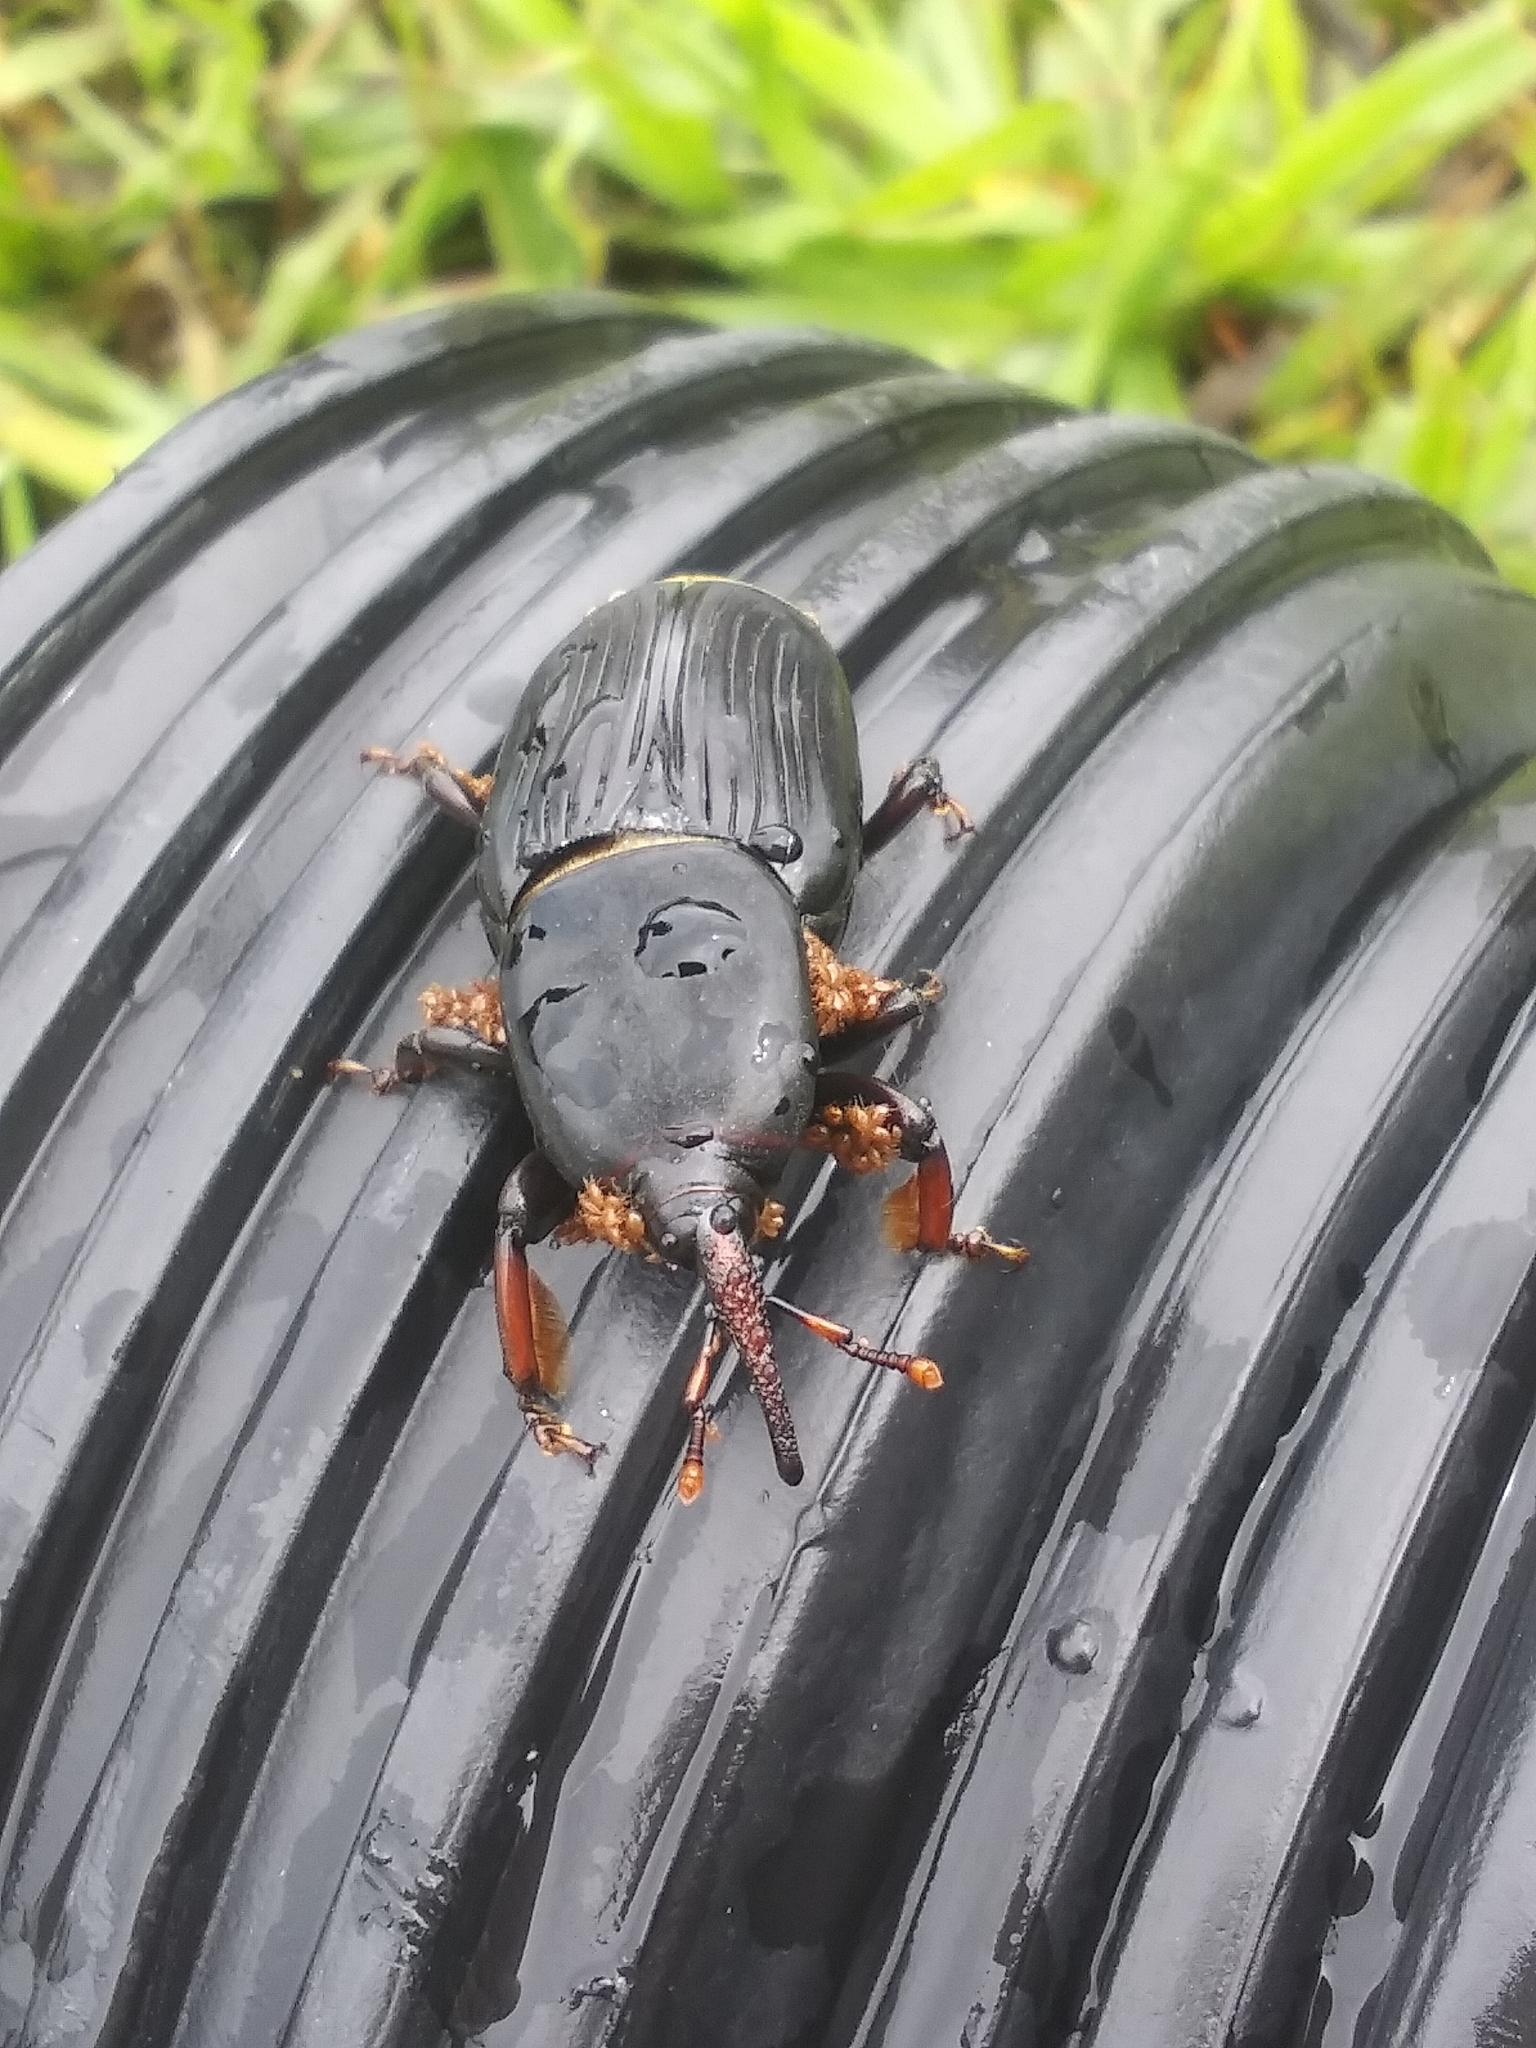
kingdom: Animalia
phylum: Arthropoda
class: Insecta
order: Coleoptera
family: Dryophthoridae
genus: Rhynchophorus
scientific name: Rhynchophorus cruentatus
